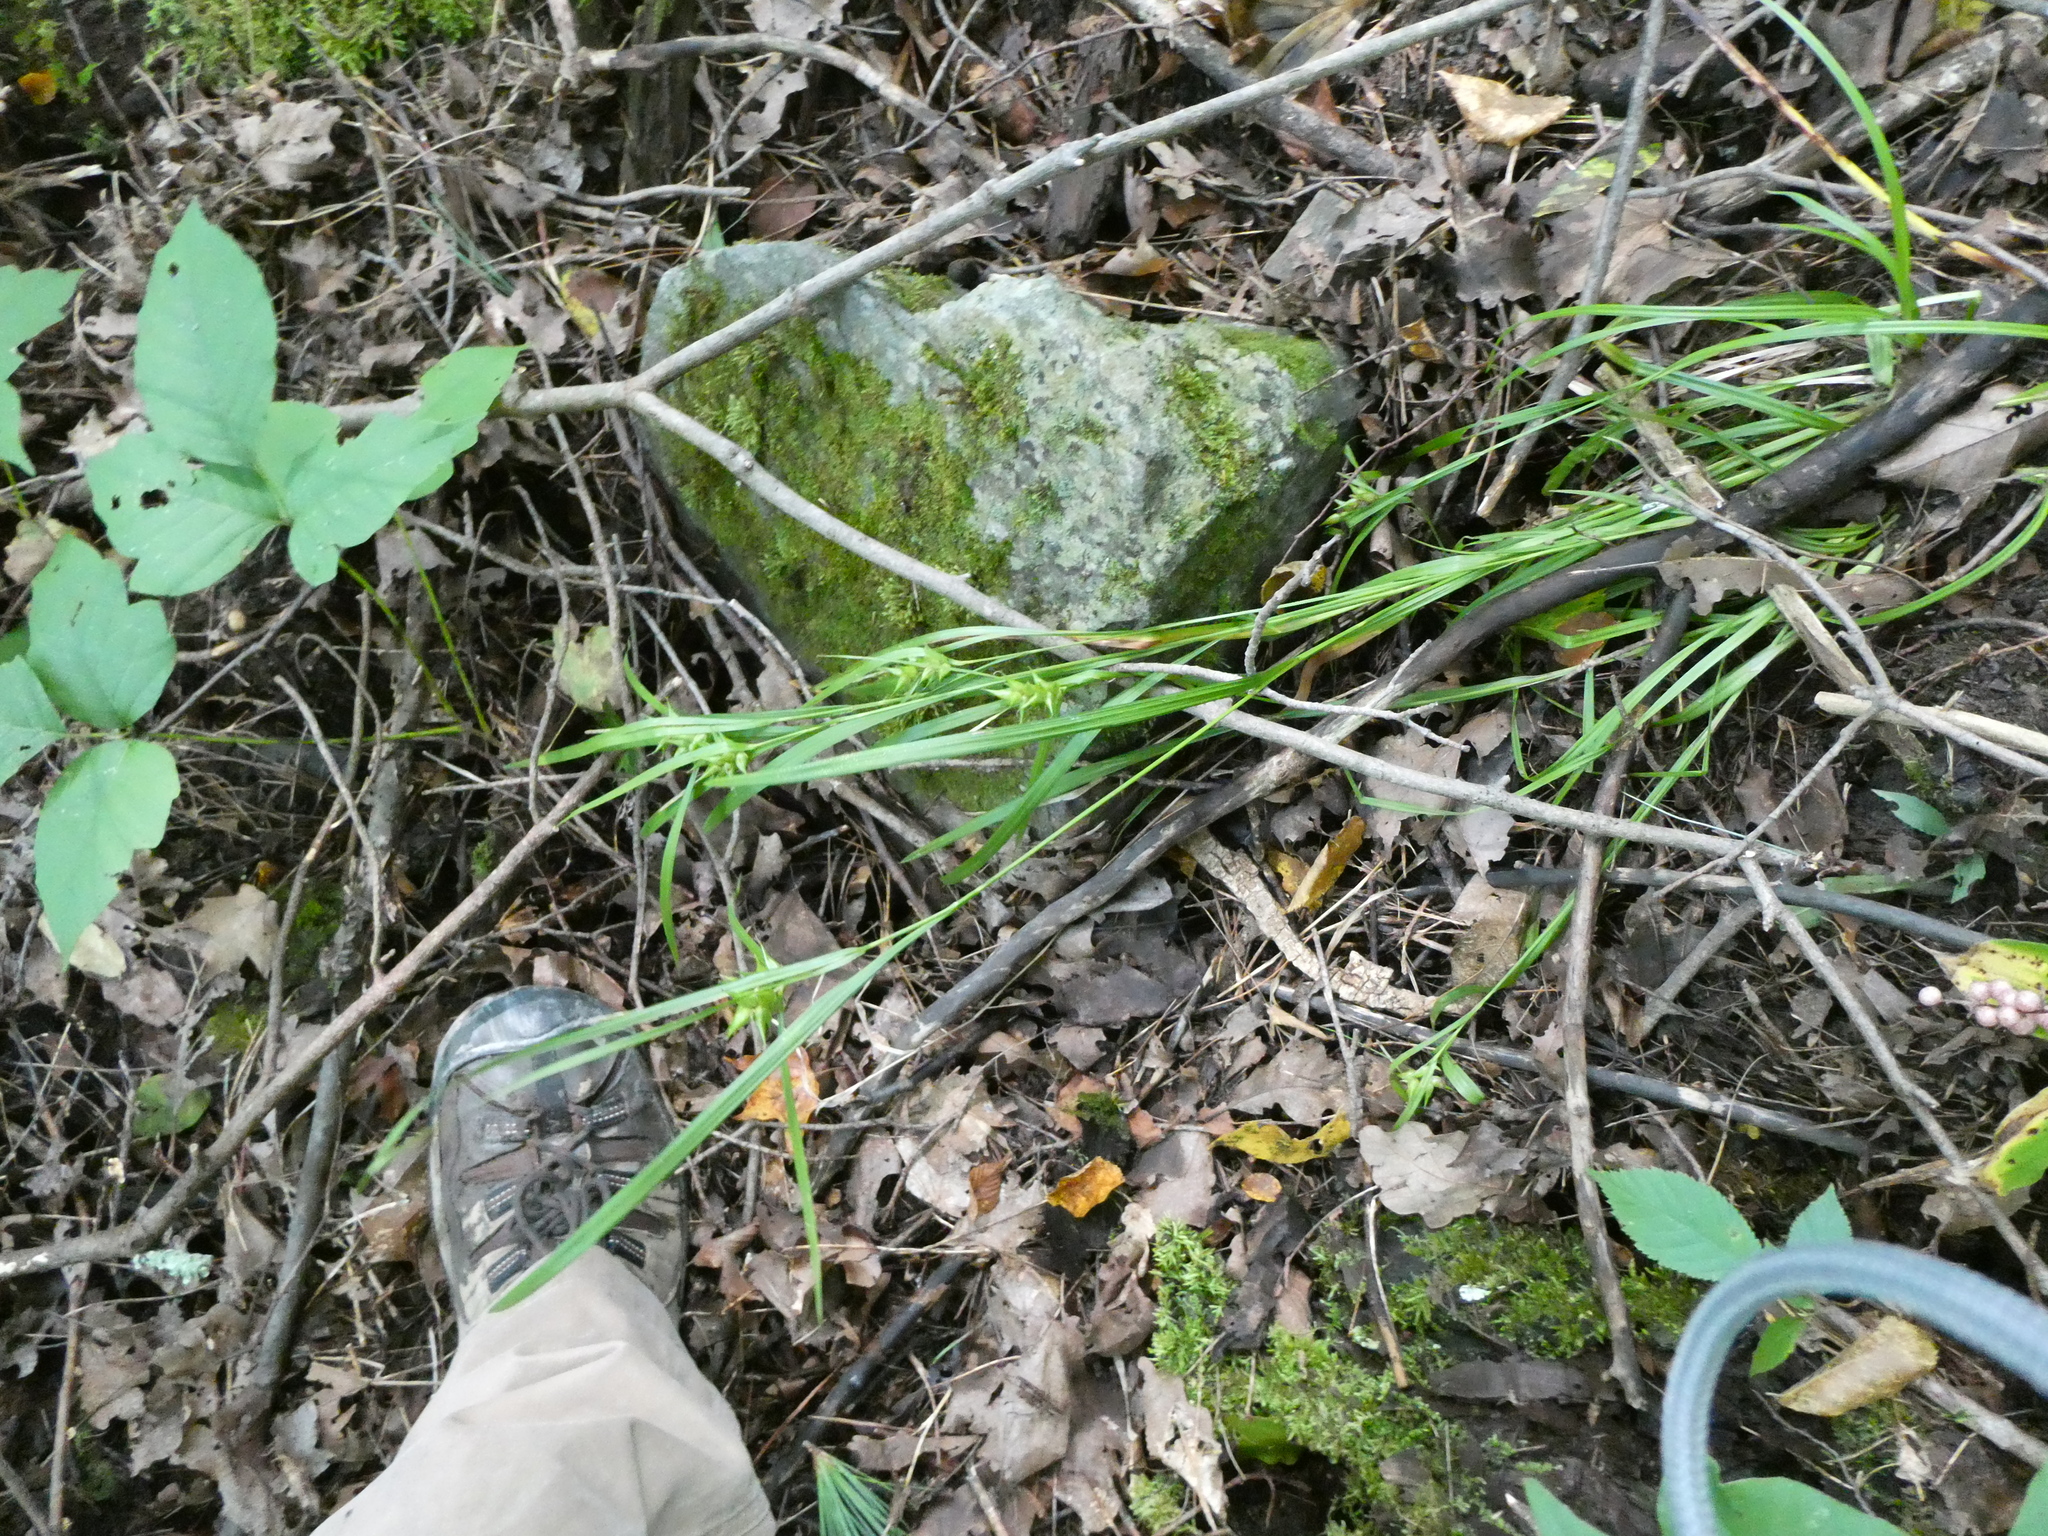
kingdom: Plantae
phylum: Tracheophyta
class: Liliopsida
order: Poales
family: Cyperaceae
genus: Carex
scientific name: Carex grayi
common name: Asa gray's sedge
